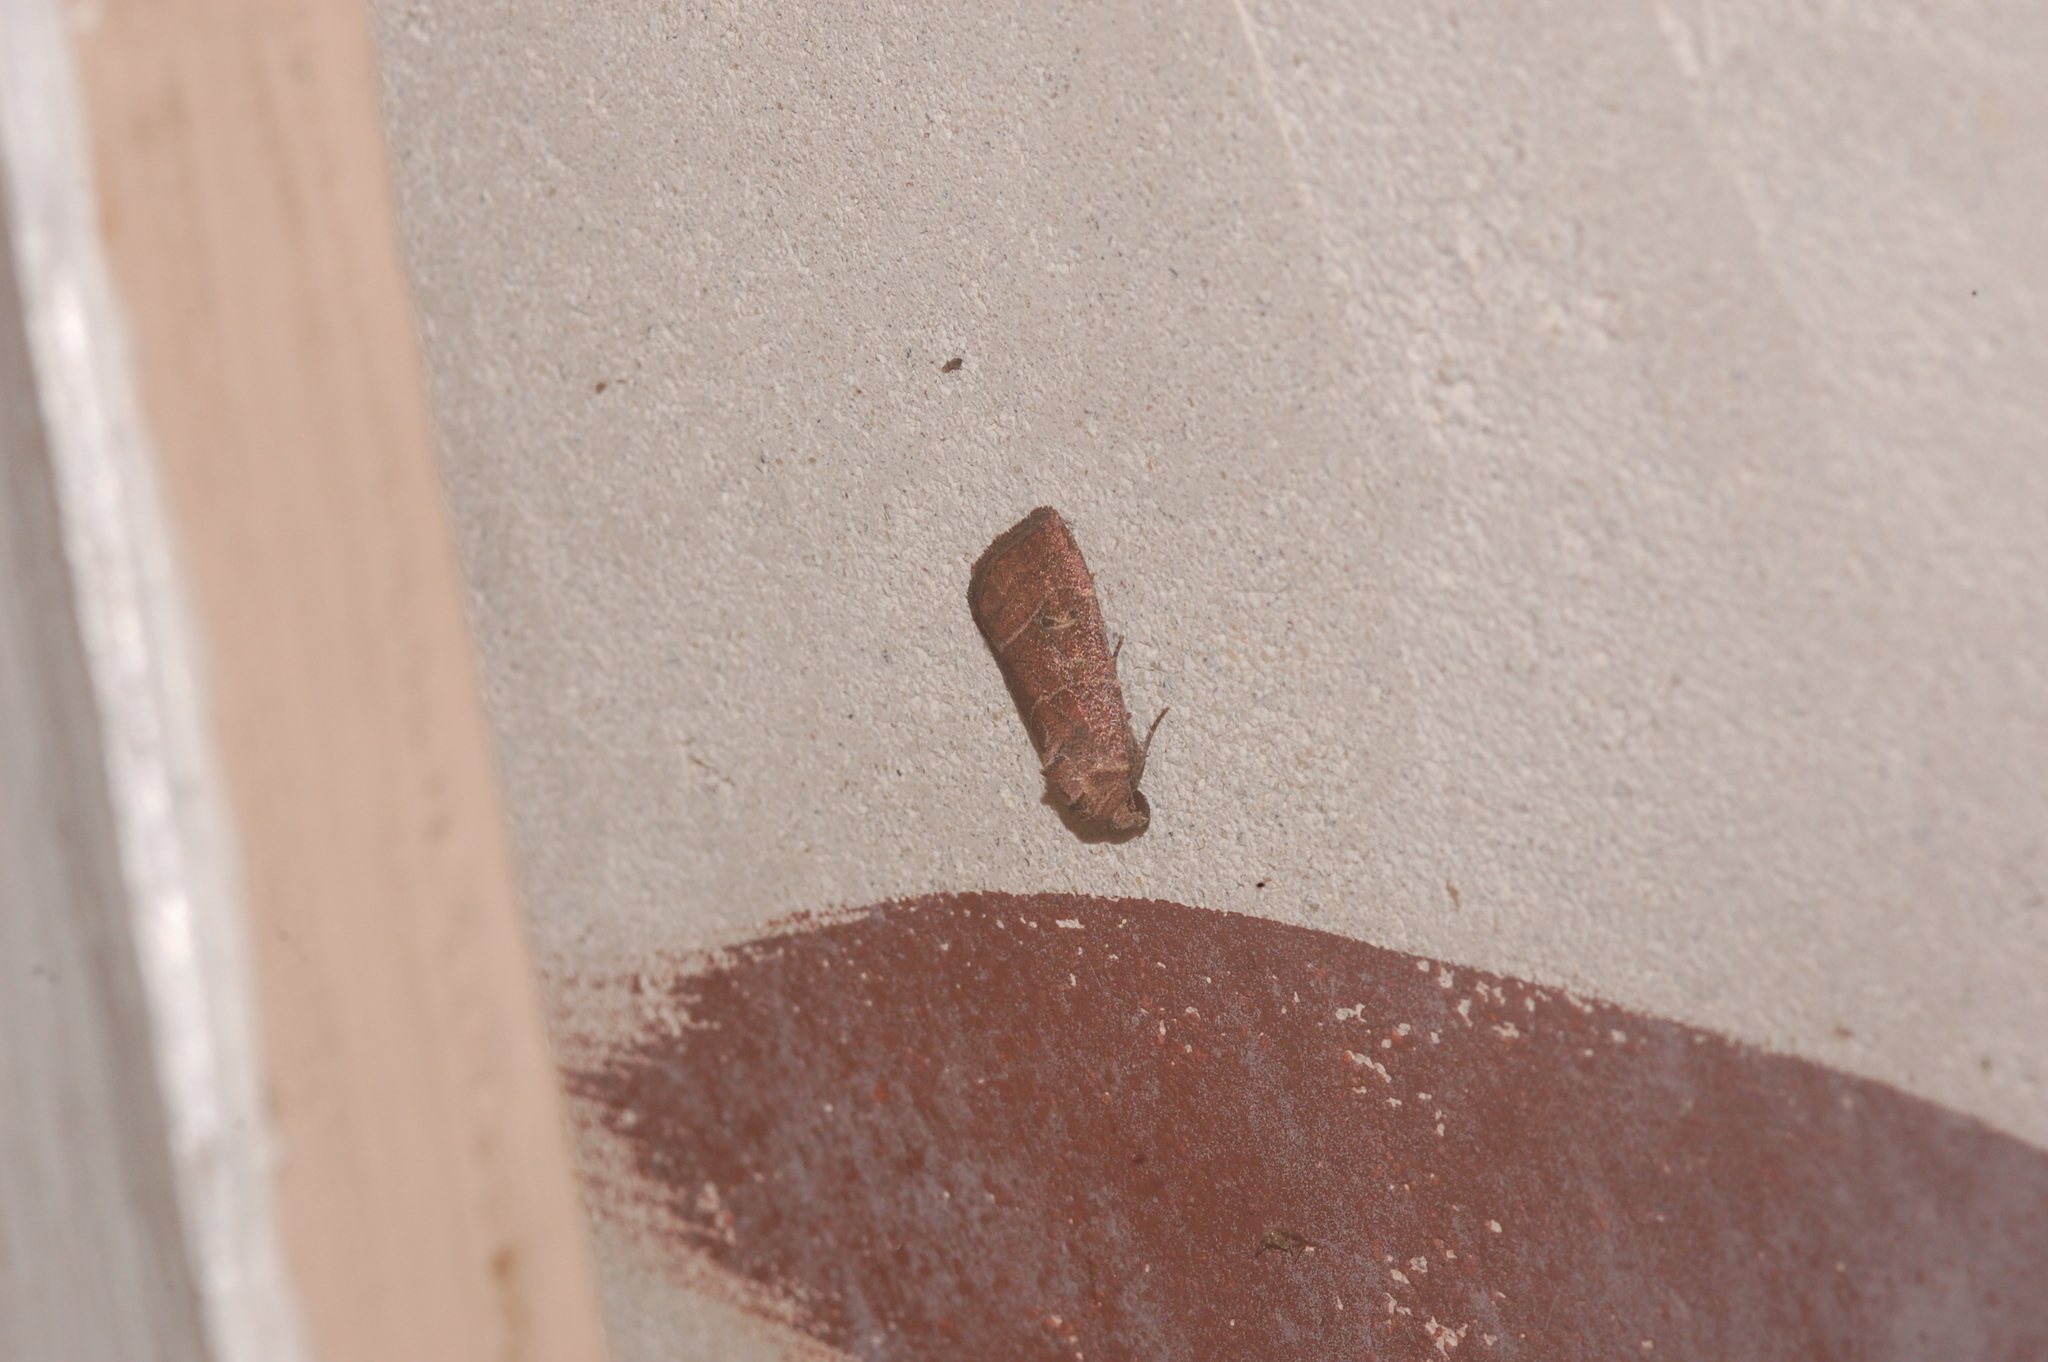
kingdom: Animalia
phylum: Arthropoda
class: Insecta
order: Lepidoptera
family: Noctuidae
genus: Elaphria
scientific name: Elaphria grata
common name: Grateful midget moth
